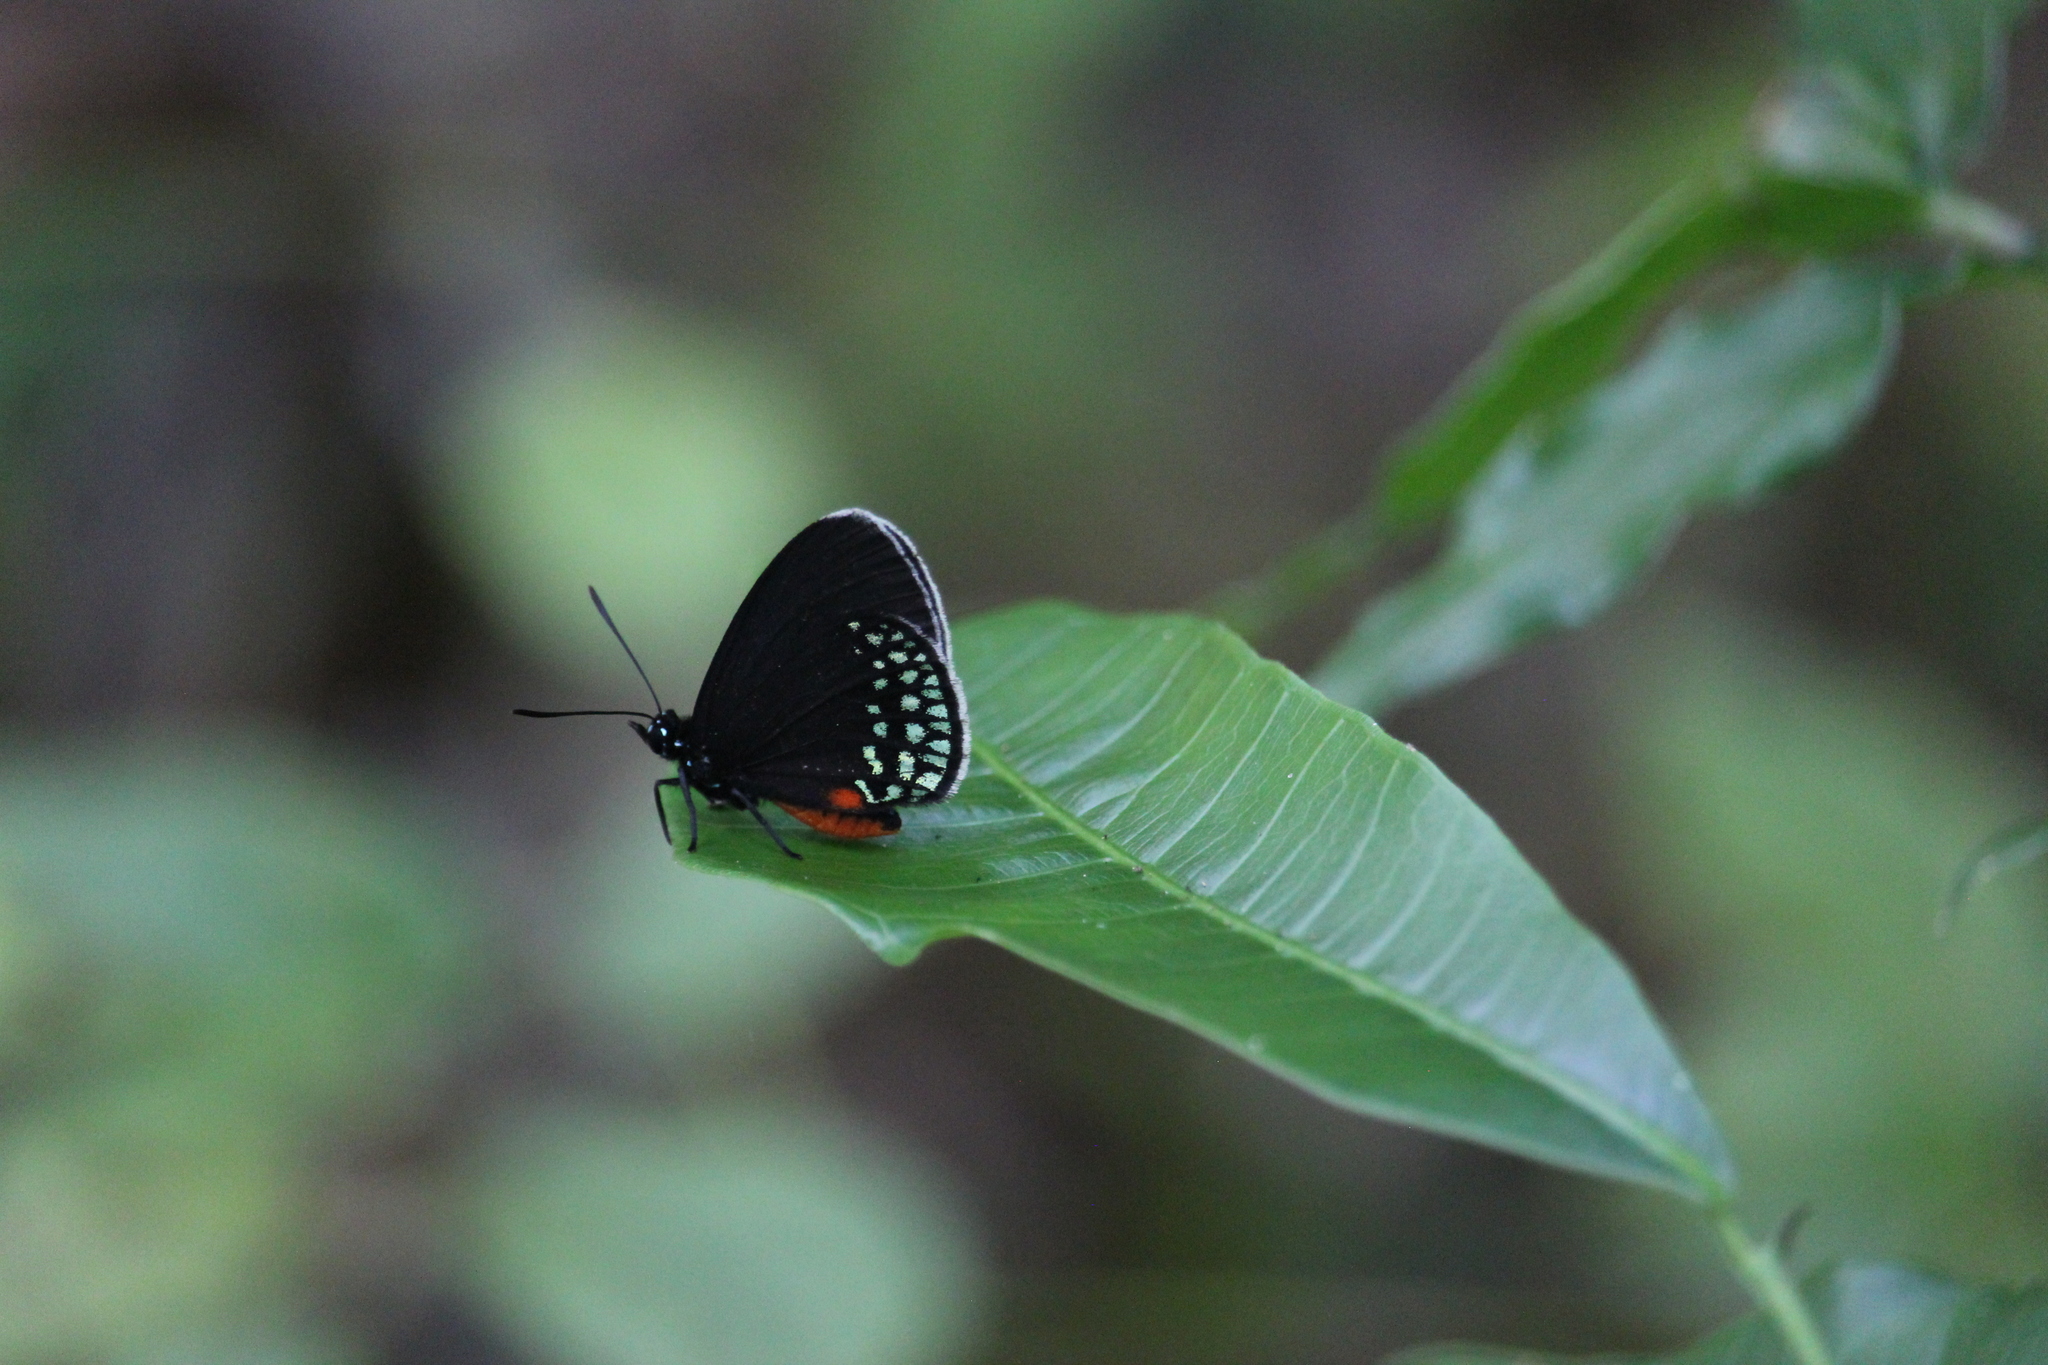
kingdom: Animalia
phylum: Arthropoda
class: Insecta
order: Lepidoptera
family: Lycaenidae
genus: Eumaeus
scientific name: Eumaeus toxea
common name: Mexican cycadian
